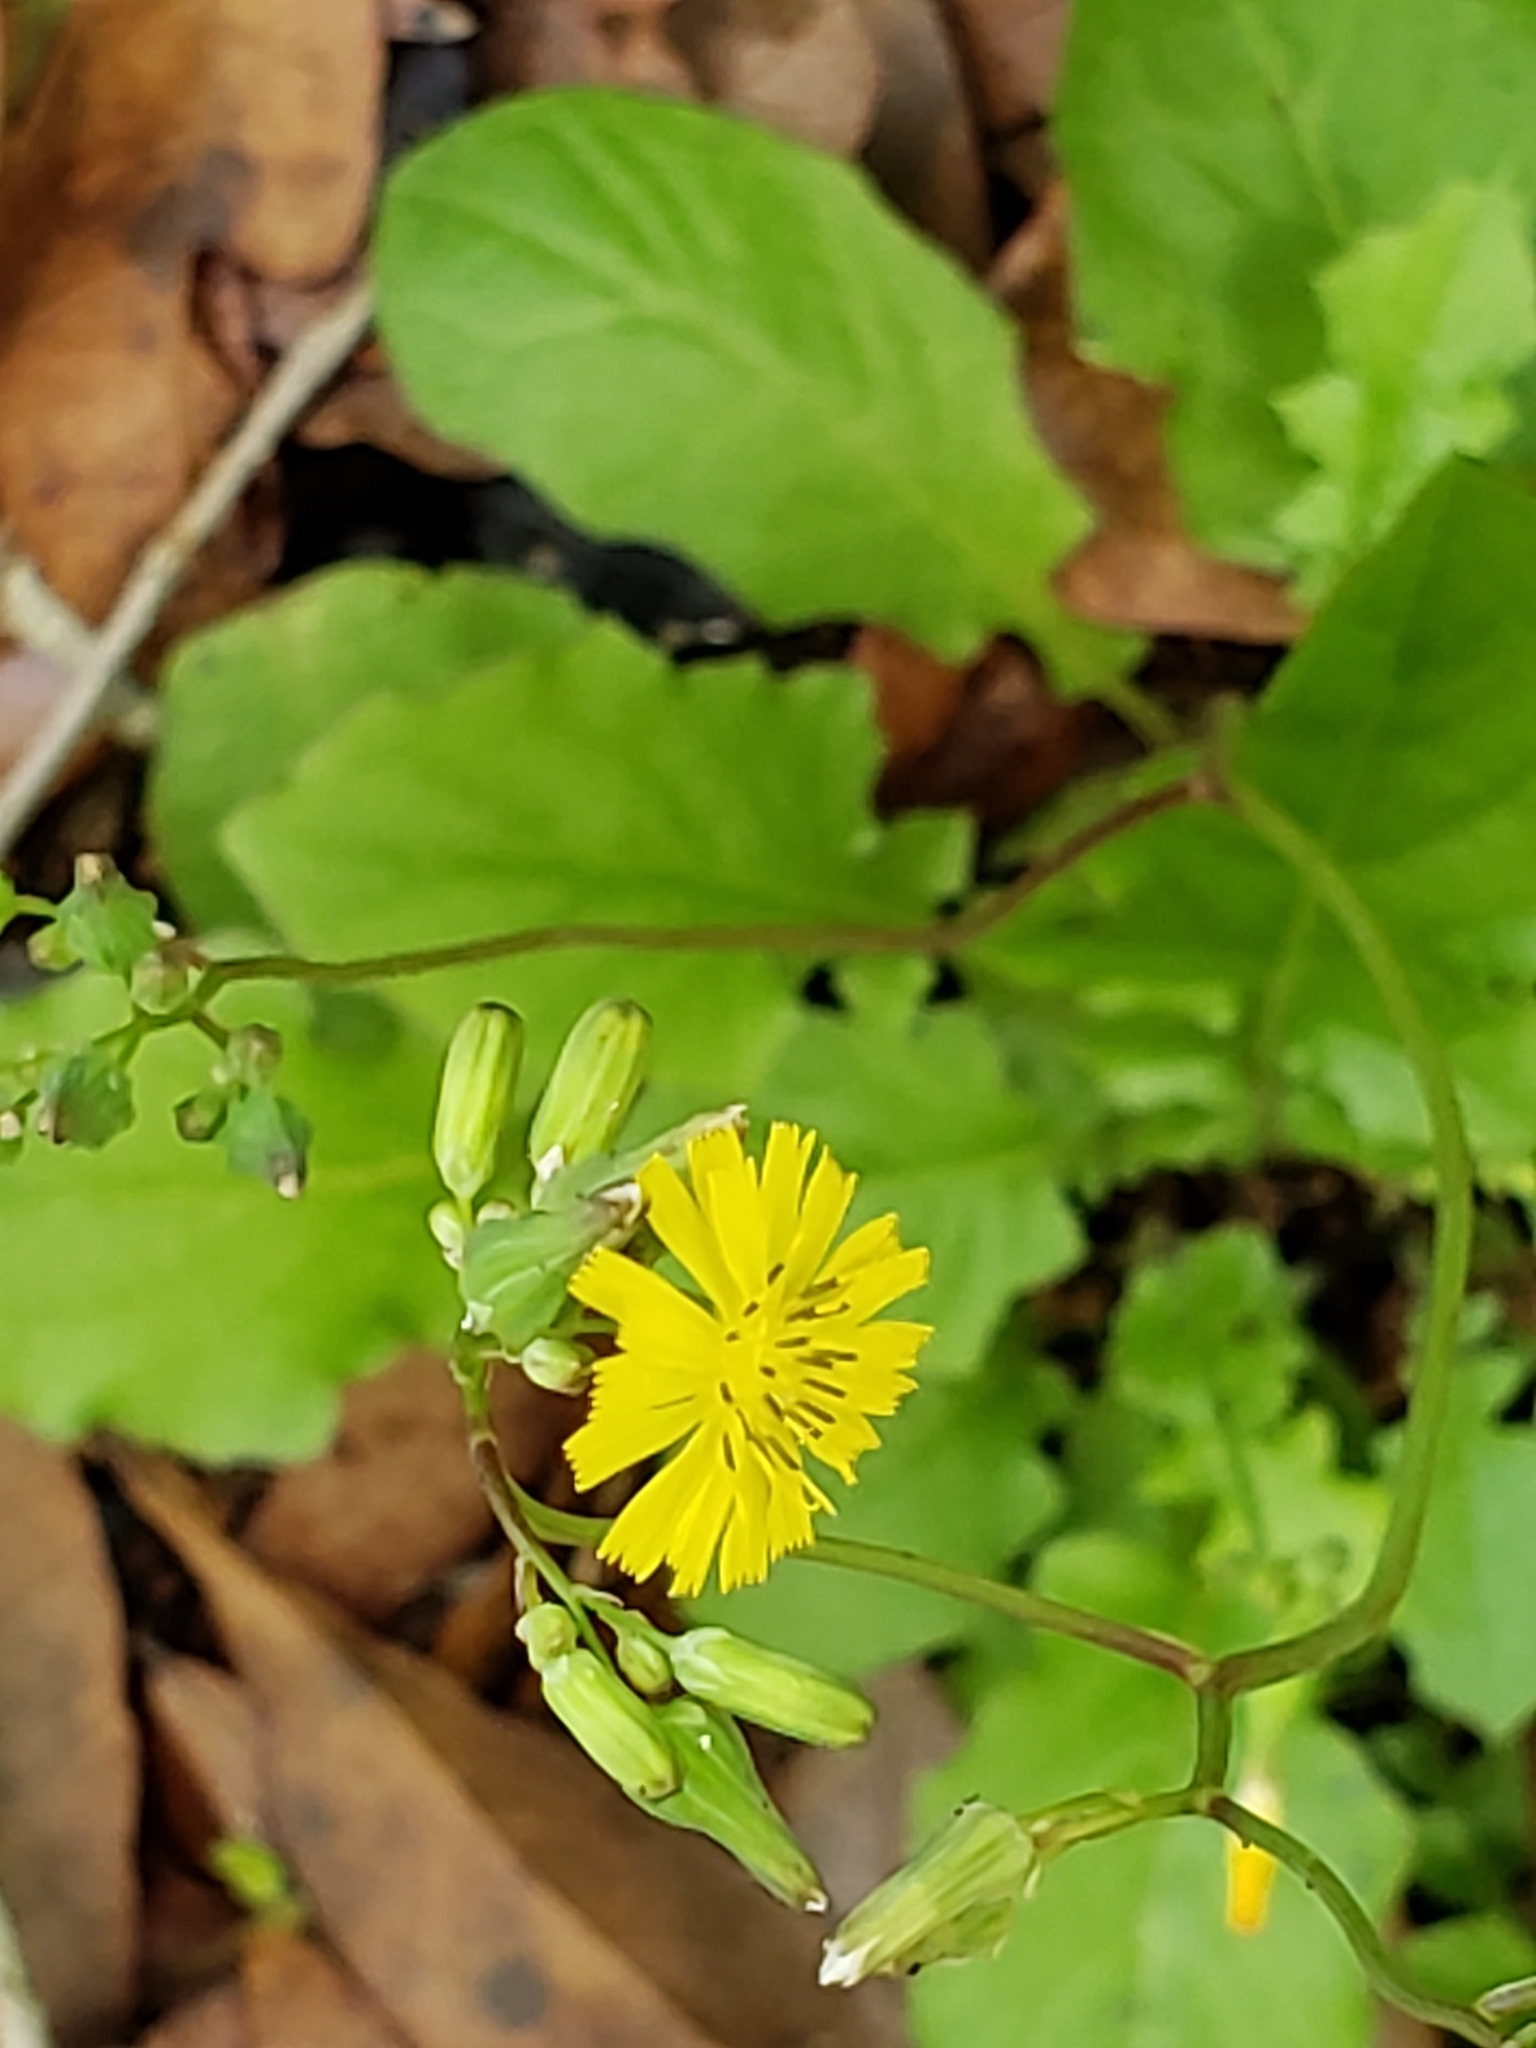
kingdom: Plantae
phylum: Tracheophyta
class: Magnoliopsida
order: Asterales
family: Asteraceae
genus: Youngia
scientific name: Youngia japonica
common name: Oriental false hawksbeard
